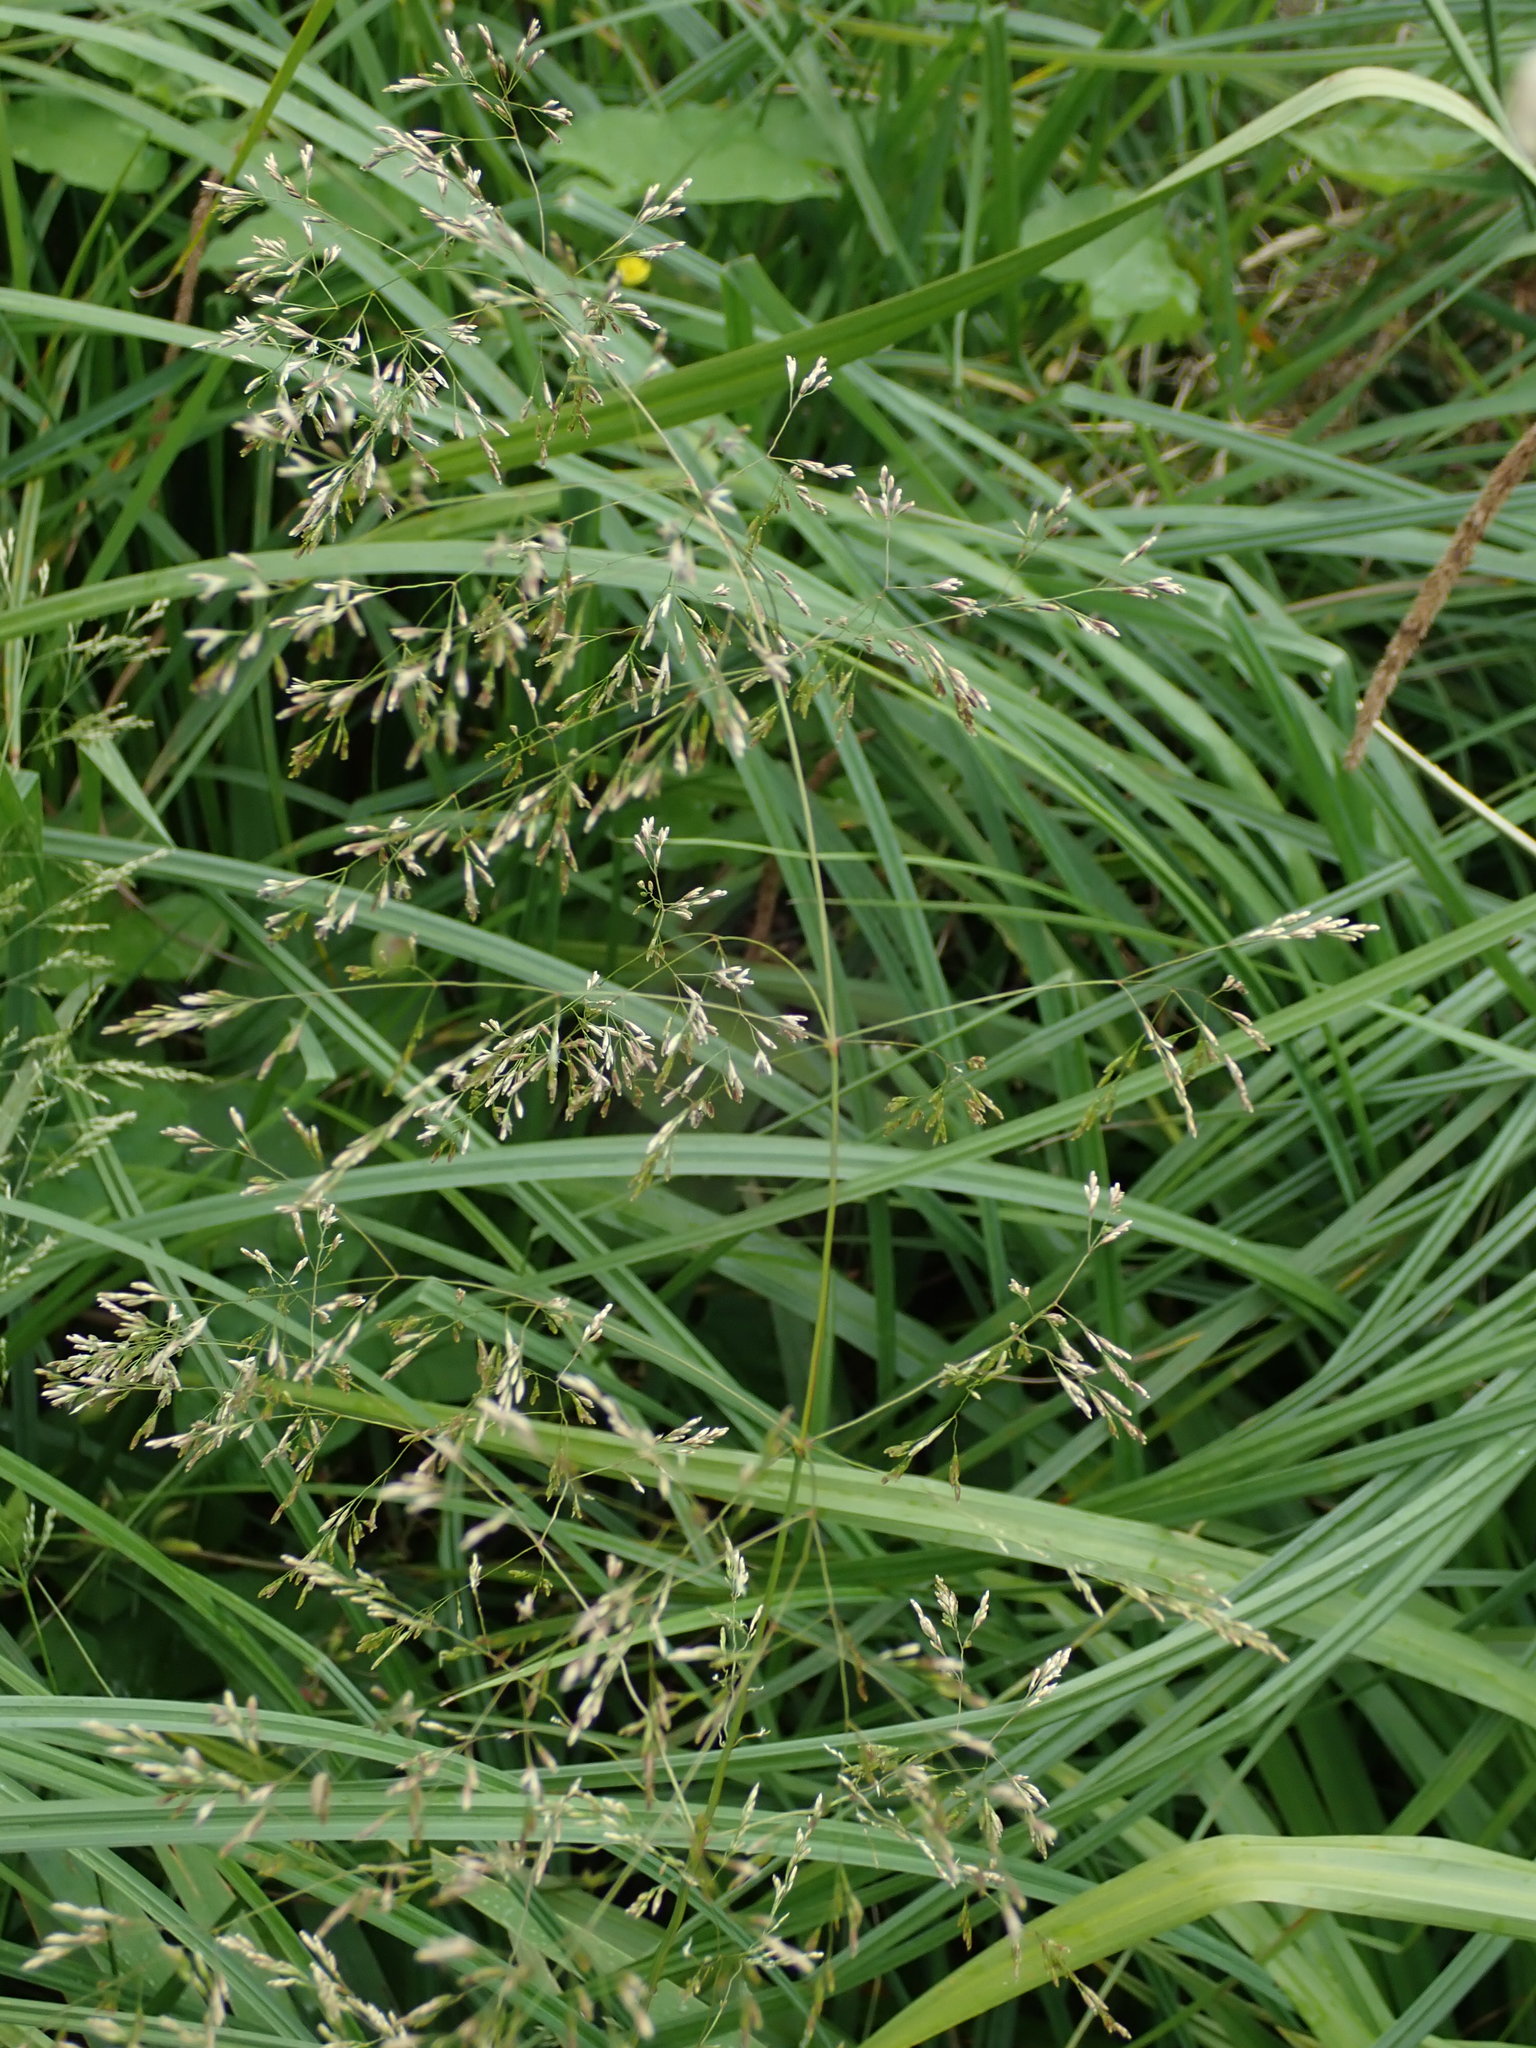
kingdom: Plantae
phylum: Tracheophyta
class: Liliopsida
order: Poales
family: Poaceae
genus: Deschampsia
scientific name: Deschampsia cespitosa
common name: Tufted hair-grass
